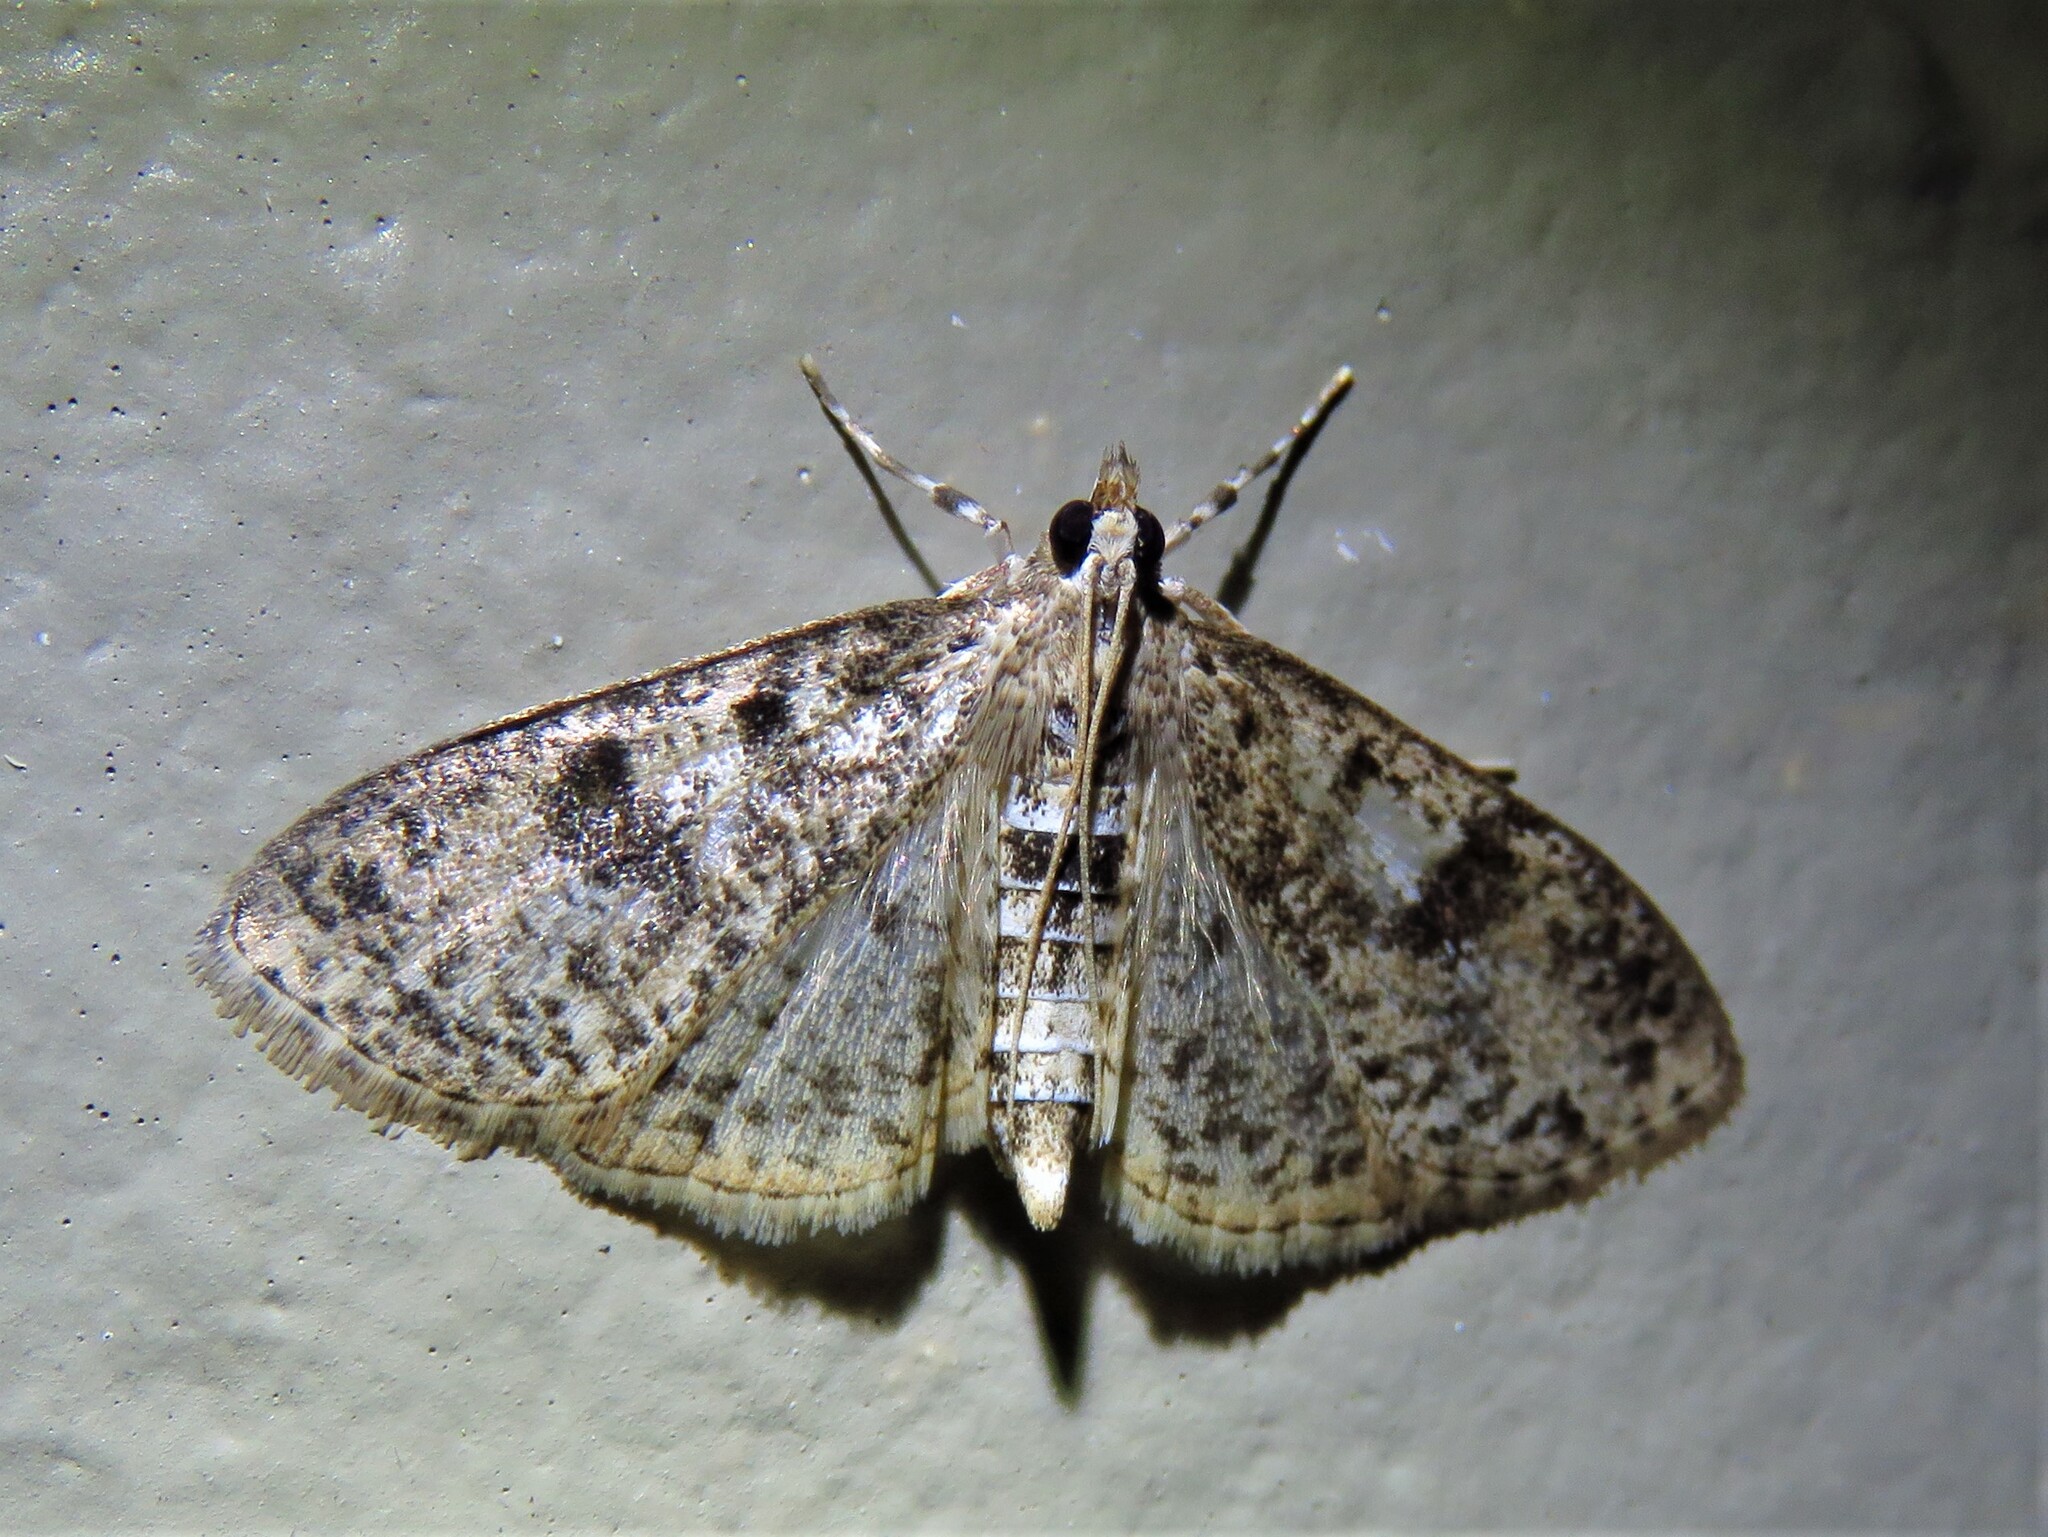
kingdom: Animalia
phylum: Arthropoda
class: Insecta
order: Lepidoptera
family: Crambidae
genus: Palpita
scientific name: Palpita magniferalis
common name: Splendid palpita moth
